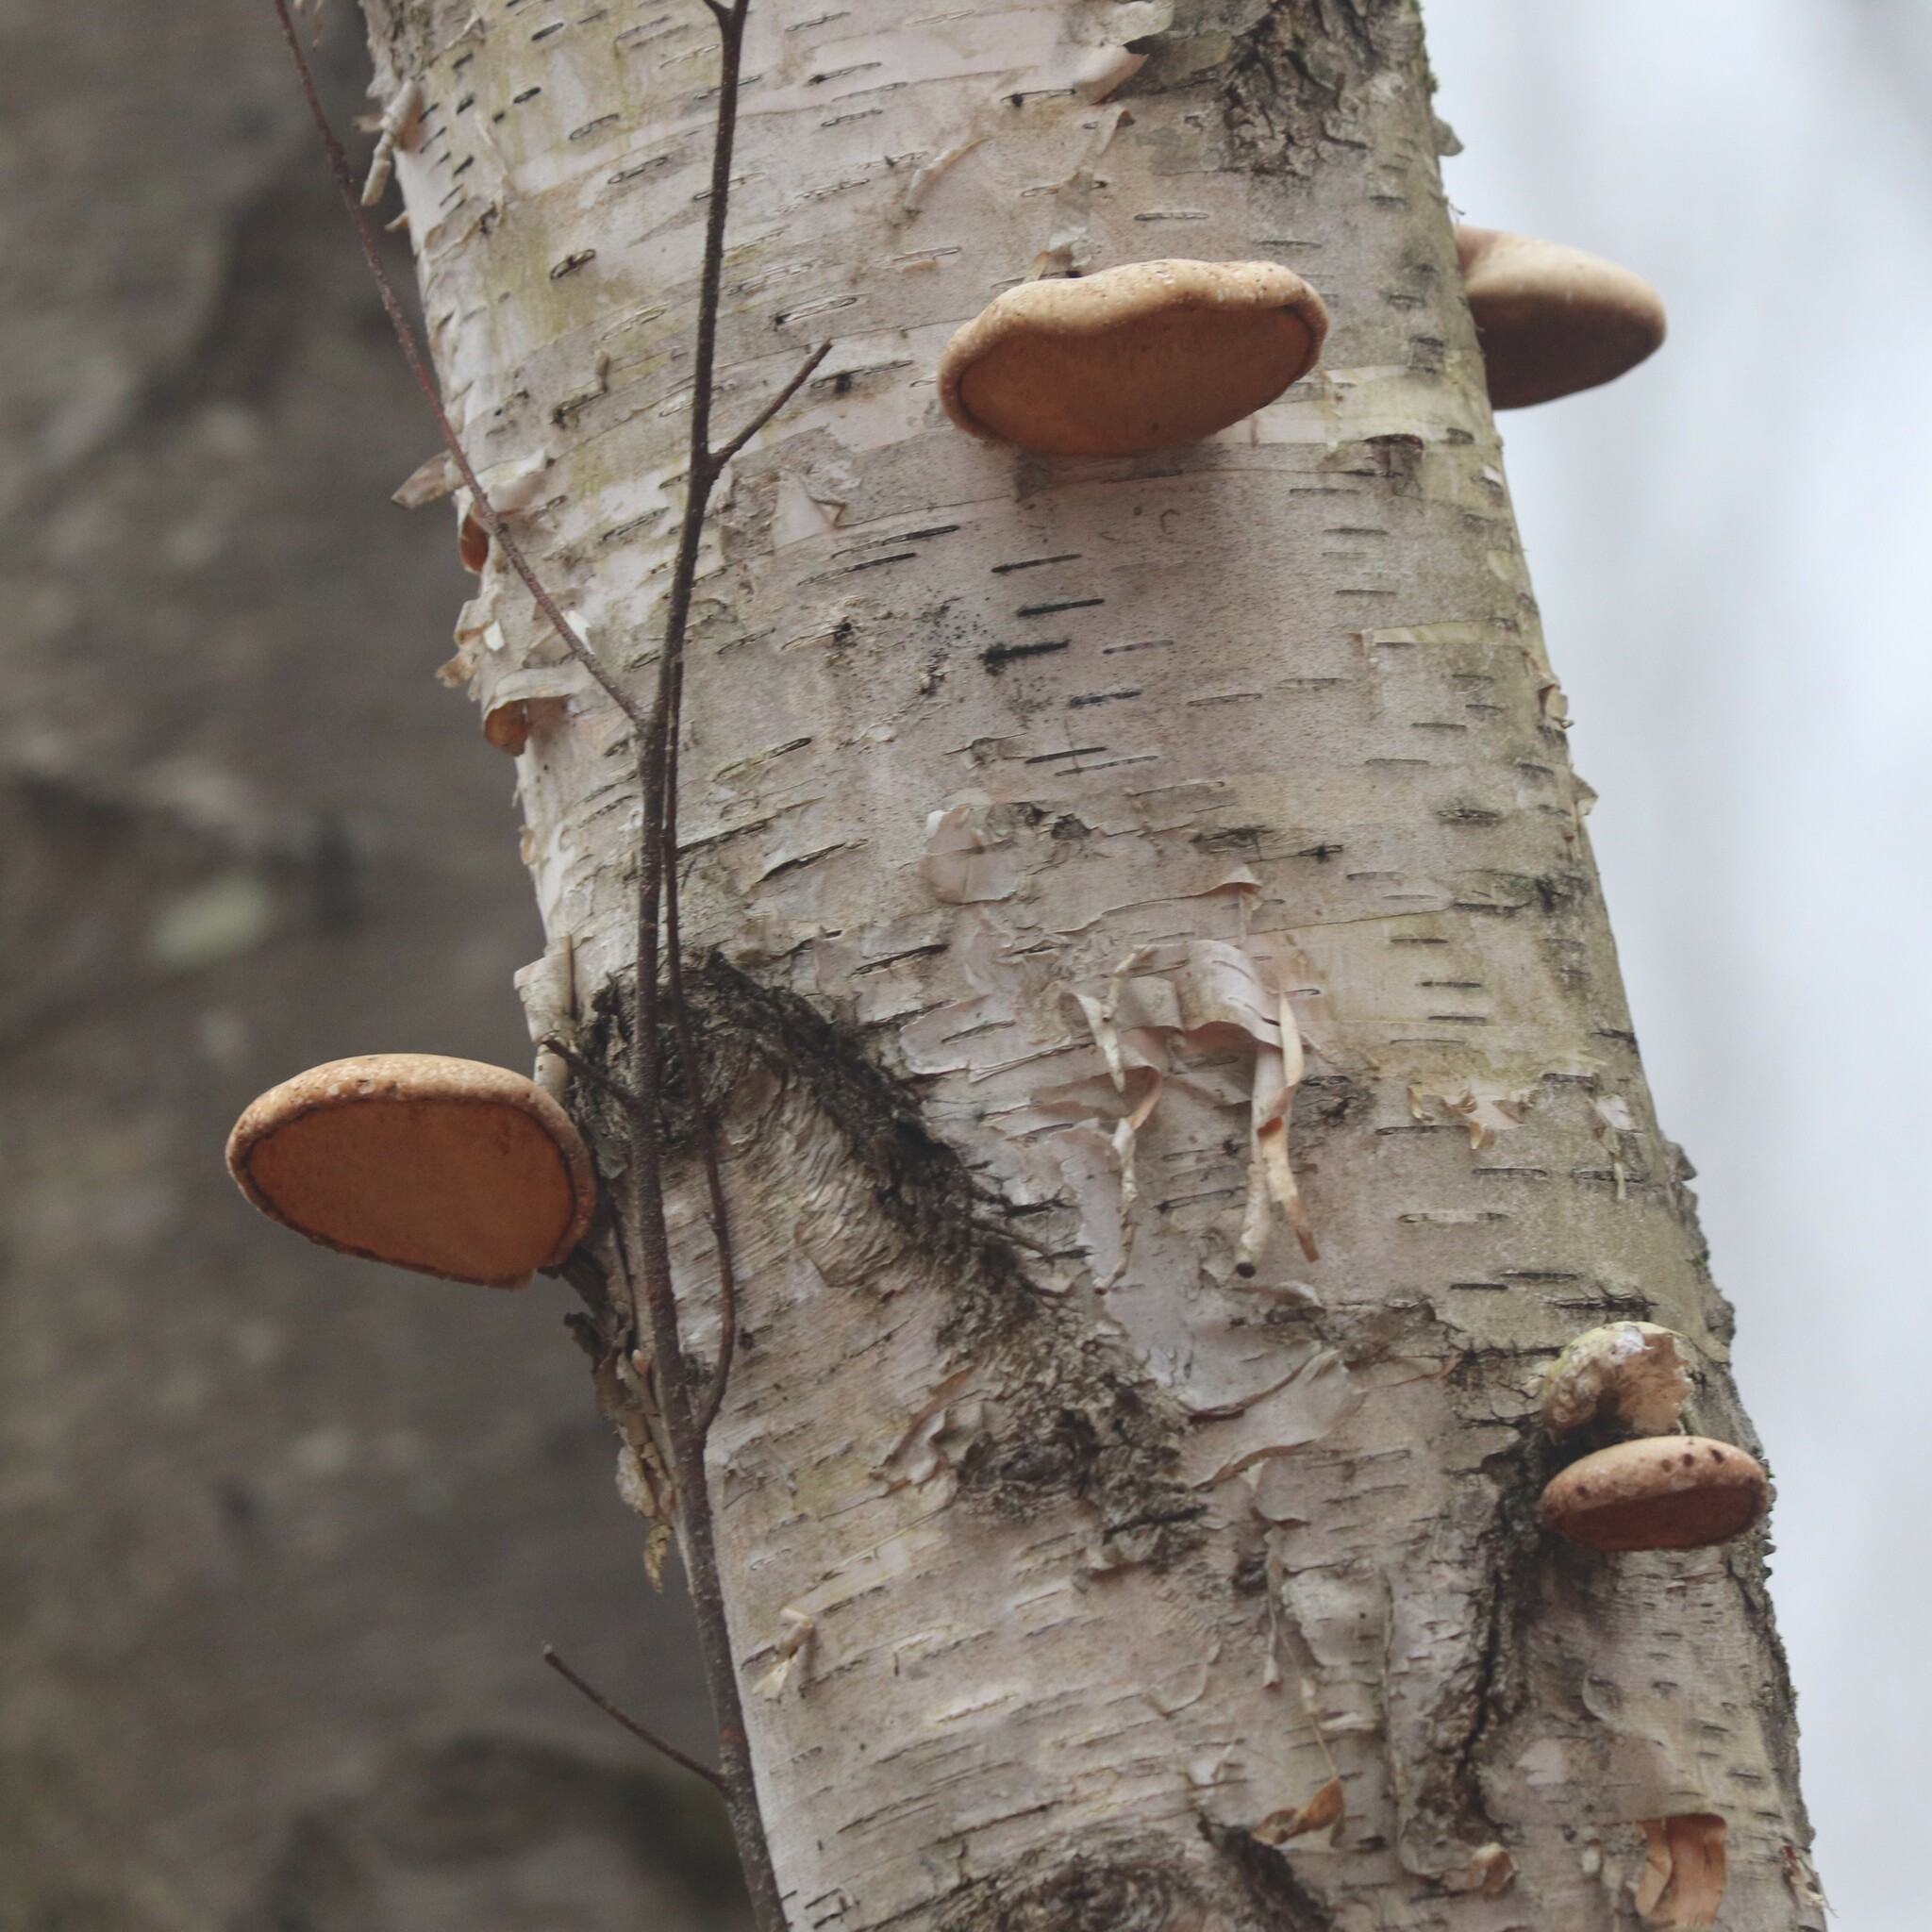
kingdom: Fungi
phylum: Basidiomycota
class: Agaricomycetes
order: Polyporales
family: Fomitopsidaceae
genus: Fomitopsis
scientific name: Fomitopsis betulina
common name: Birch polypore
